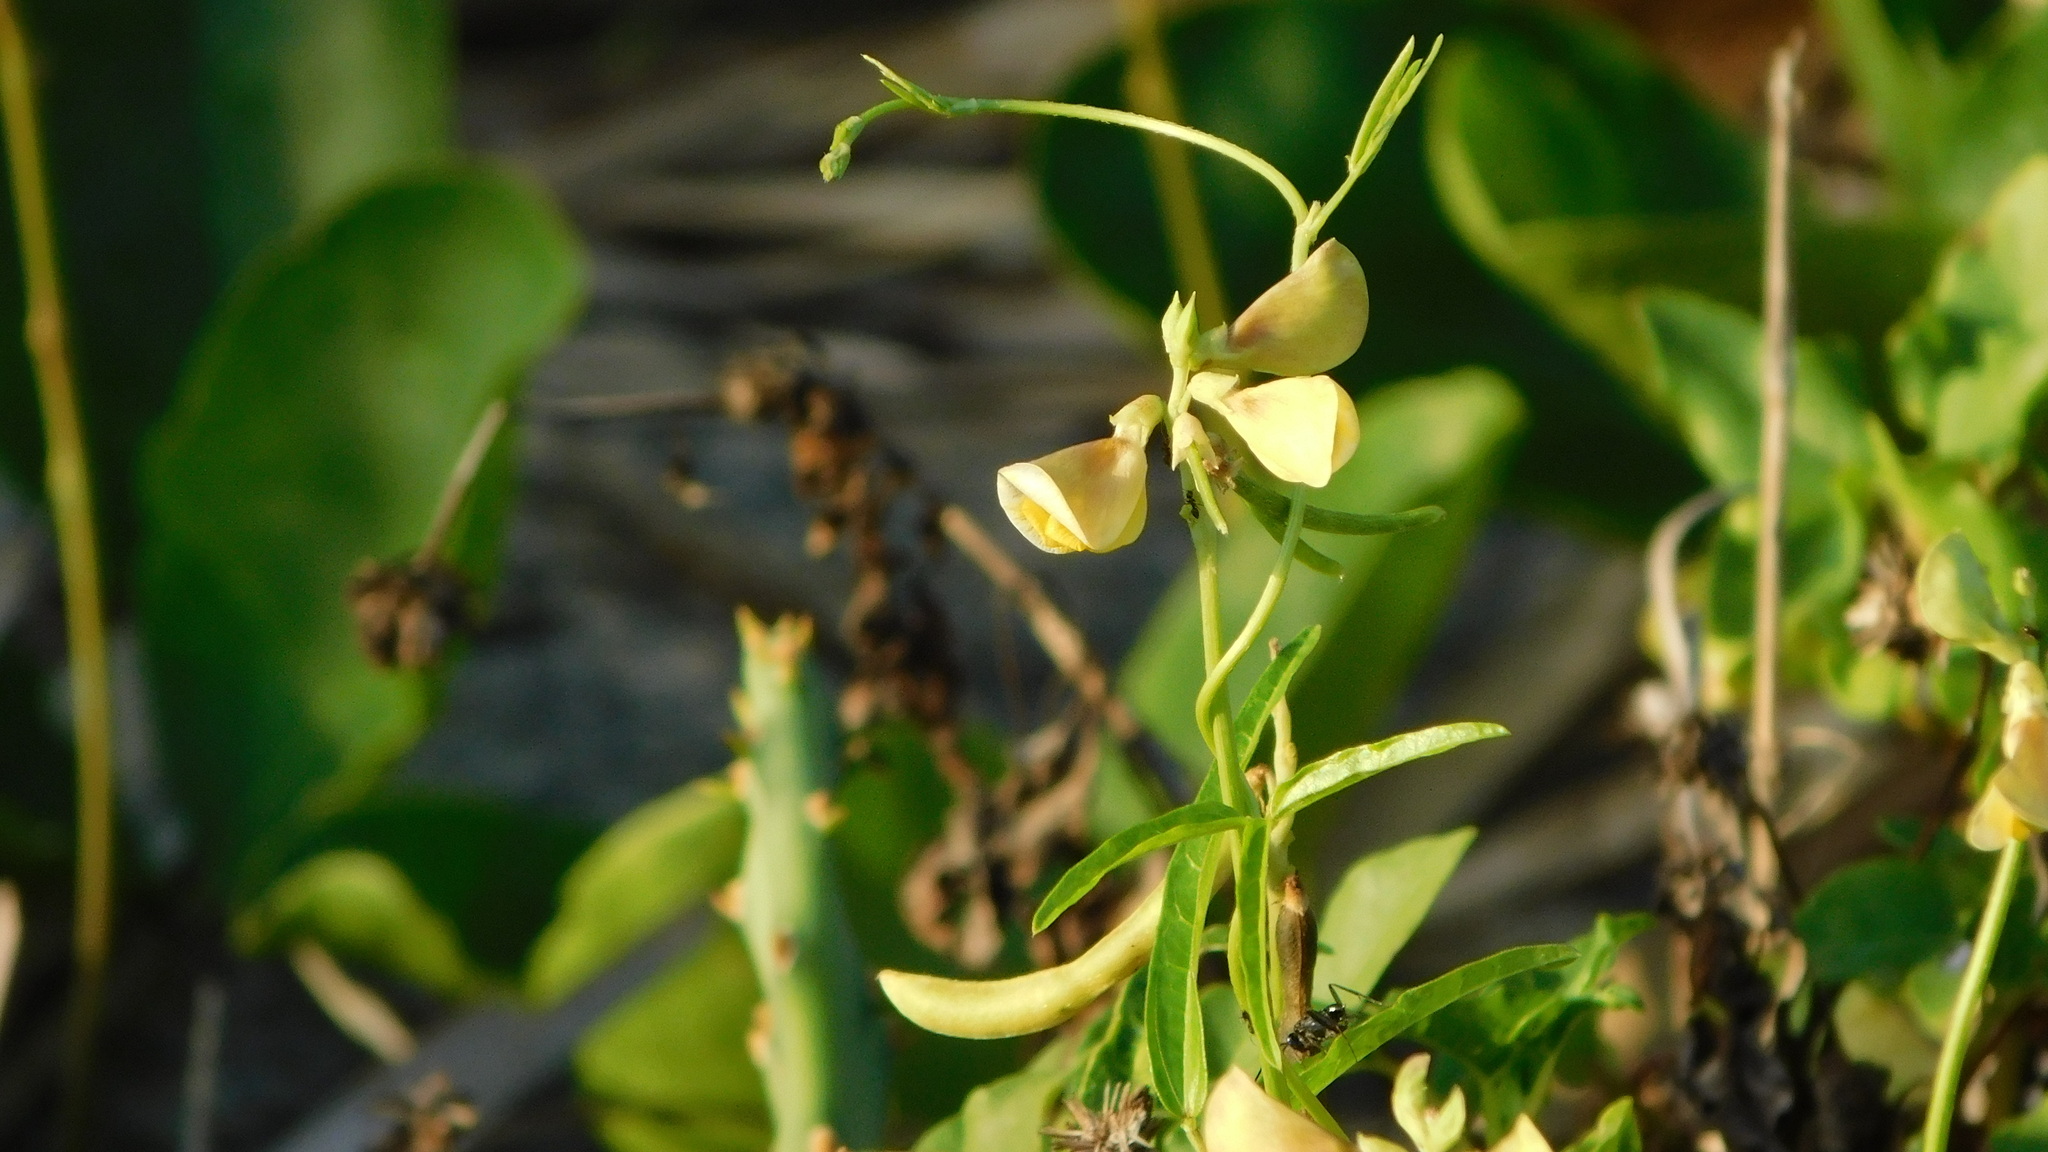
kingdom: Plantae
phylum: Tracheophyta
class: Magnoliopsida
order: Fabales
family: Fabaceae
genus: Vigna
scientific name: Vigna luteola
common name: Hairypod cowpea
